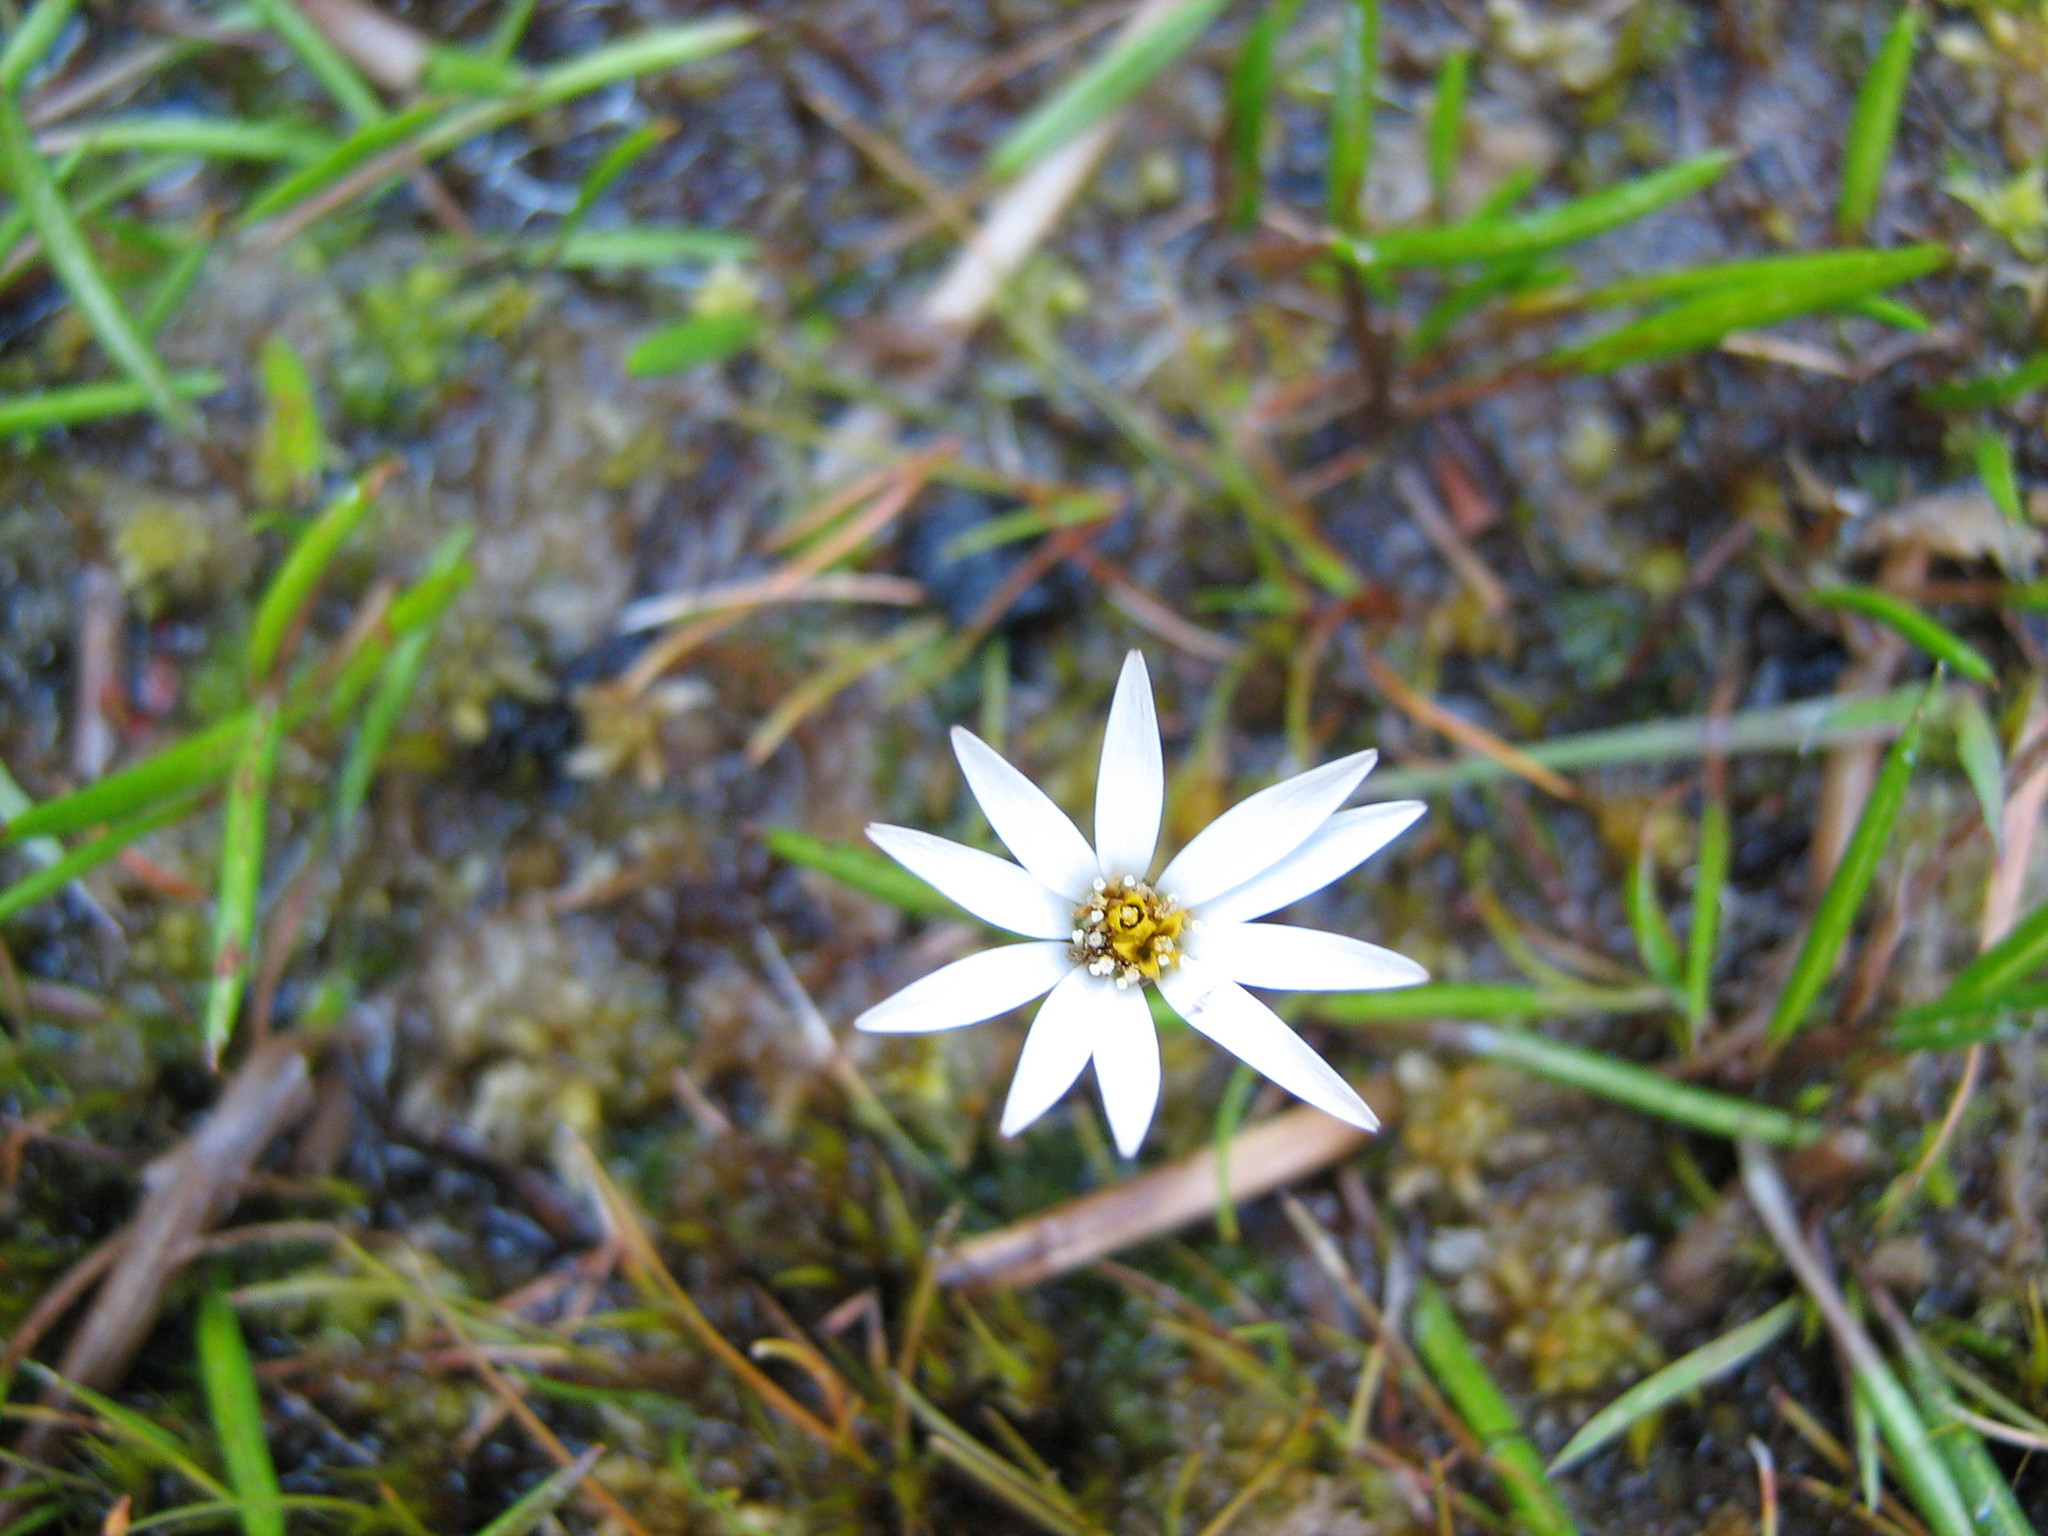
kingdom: Plantae
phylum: Tracheophyta
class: Magnoliopsida
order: Asterales
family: Asteraceae
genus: Celmisia
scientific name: Celmisia alpina
